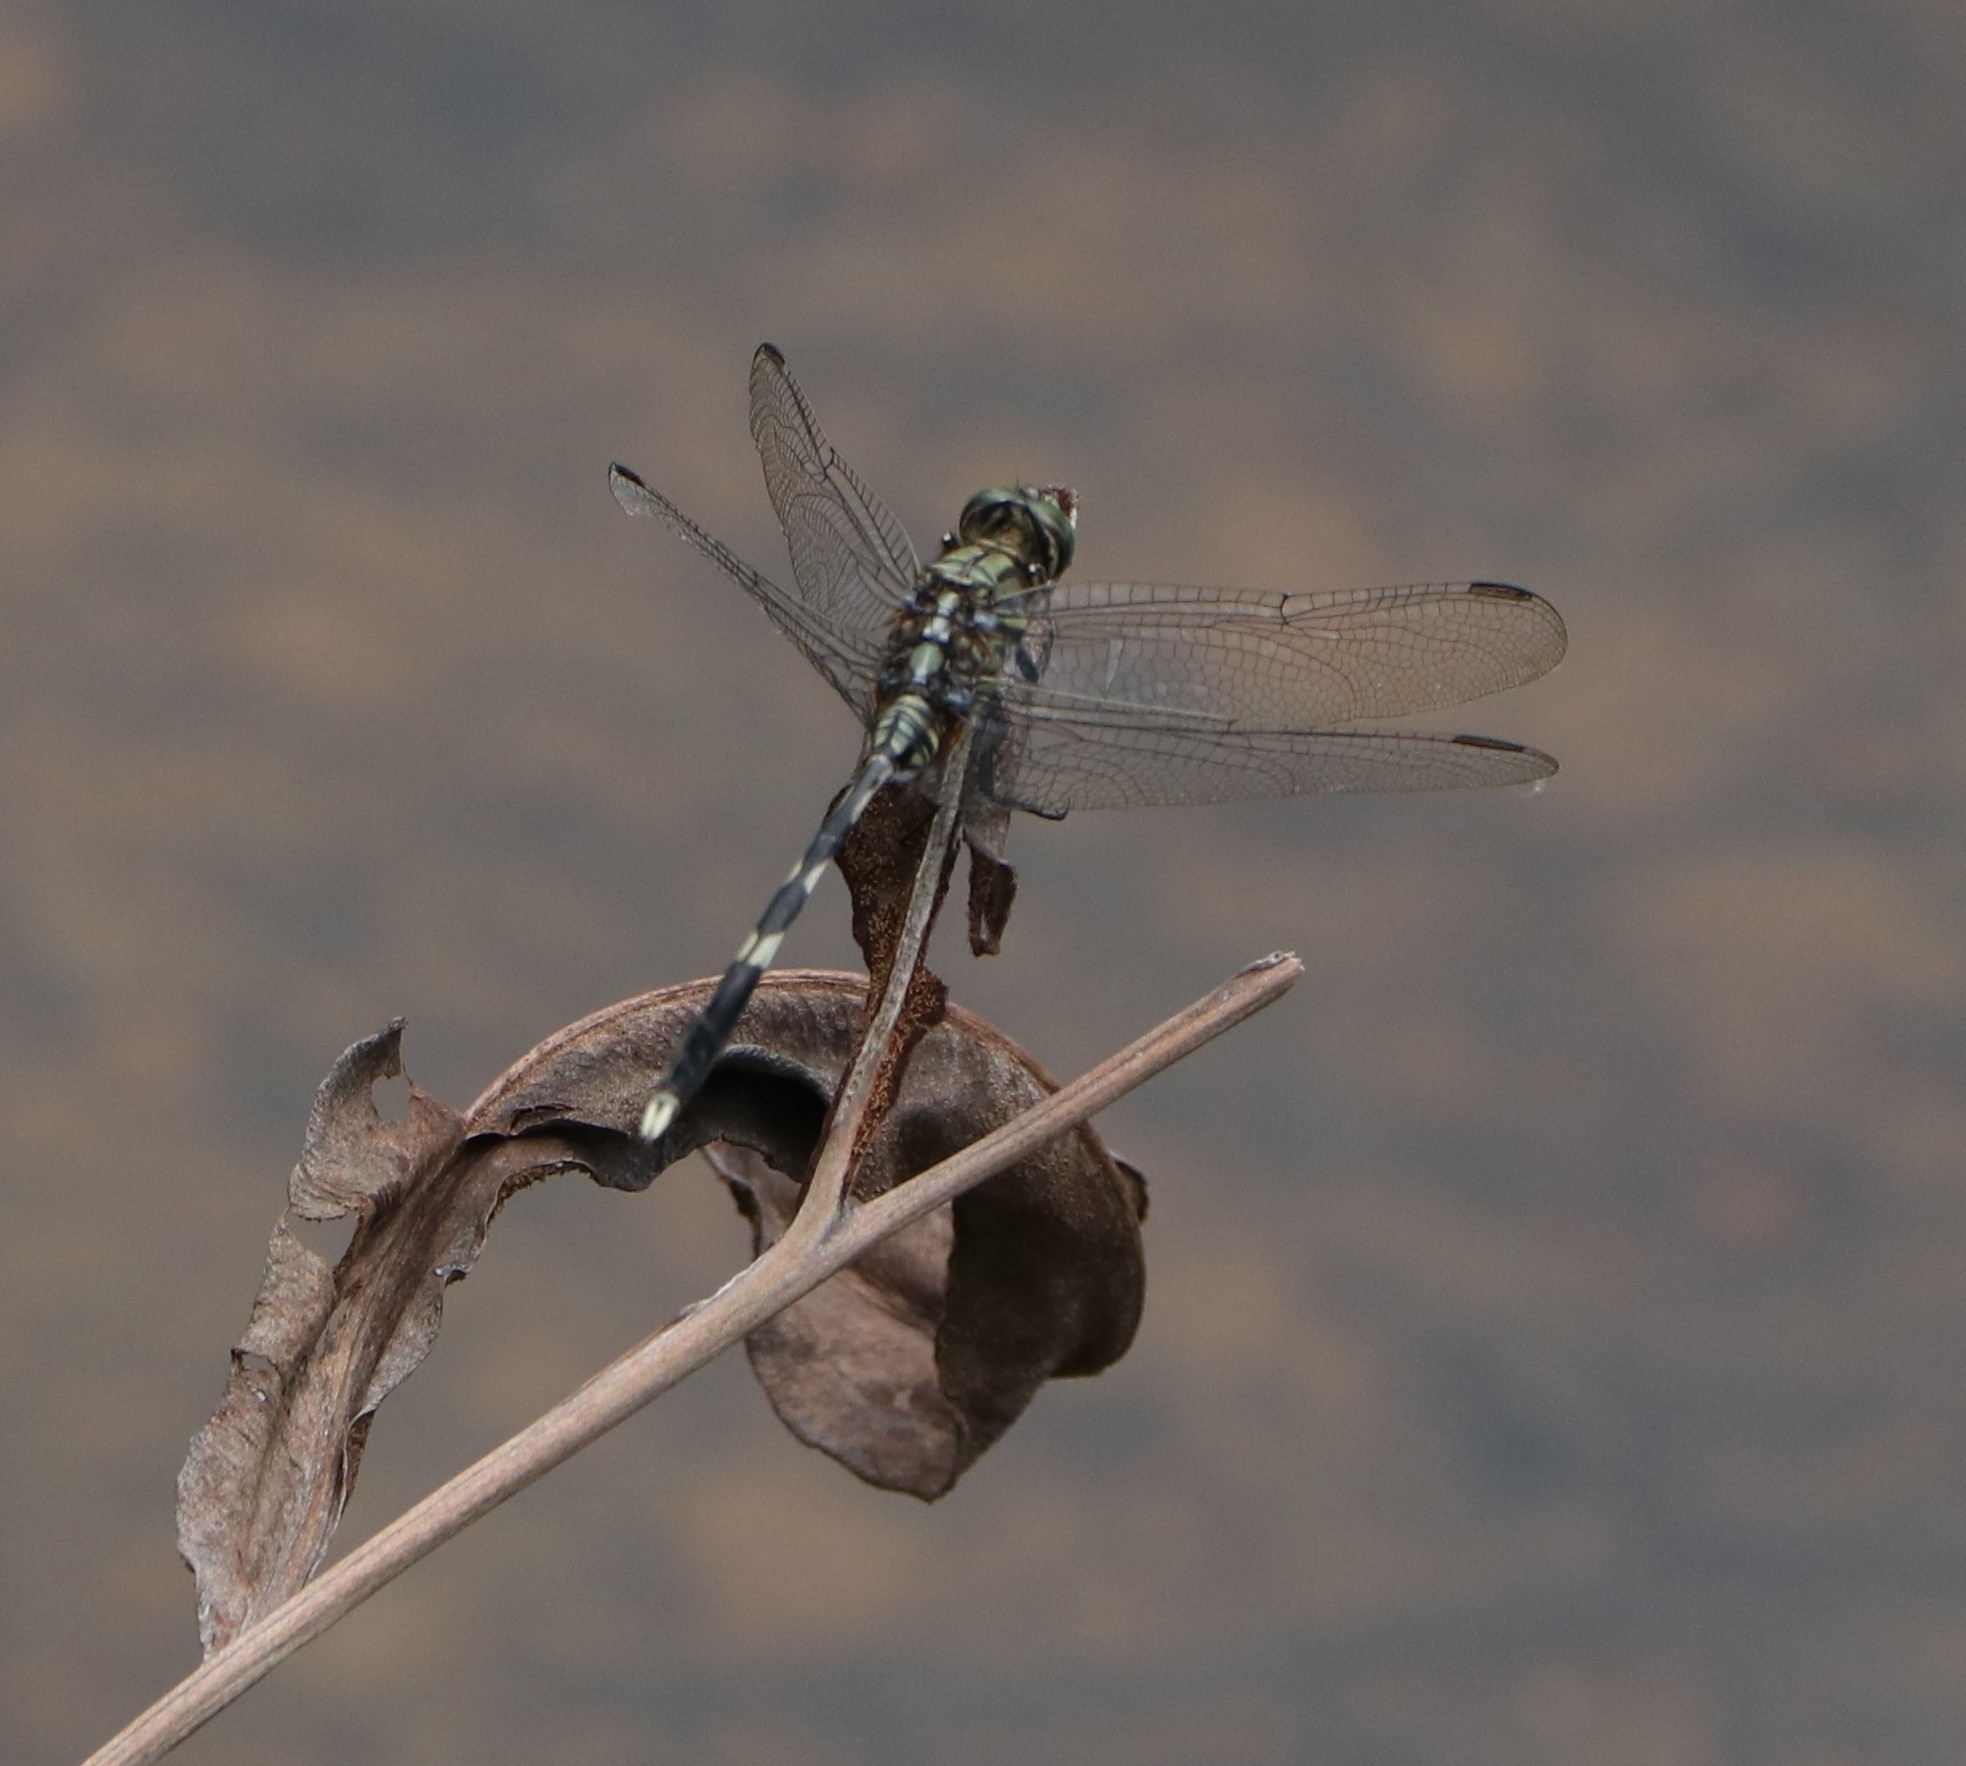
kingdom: Animalia
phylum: Arthropoda
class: Insecta
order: Odonata
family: Libellulidae
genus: Orthetrum
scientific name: Orthetrum sabina
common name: Slender skimmer
